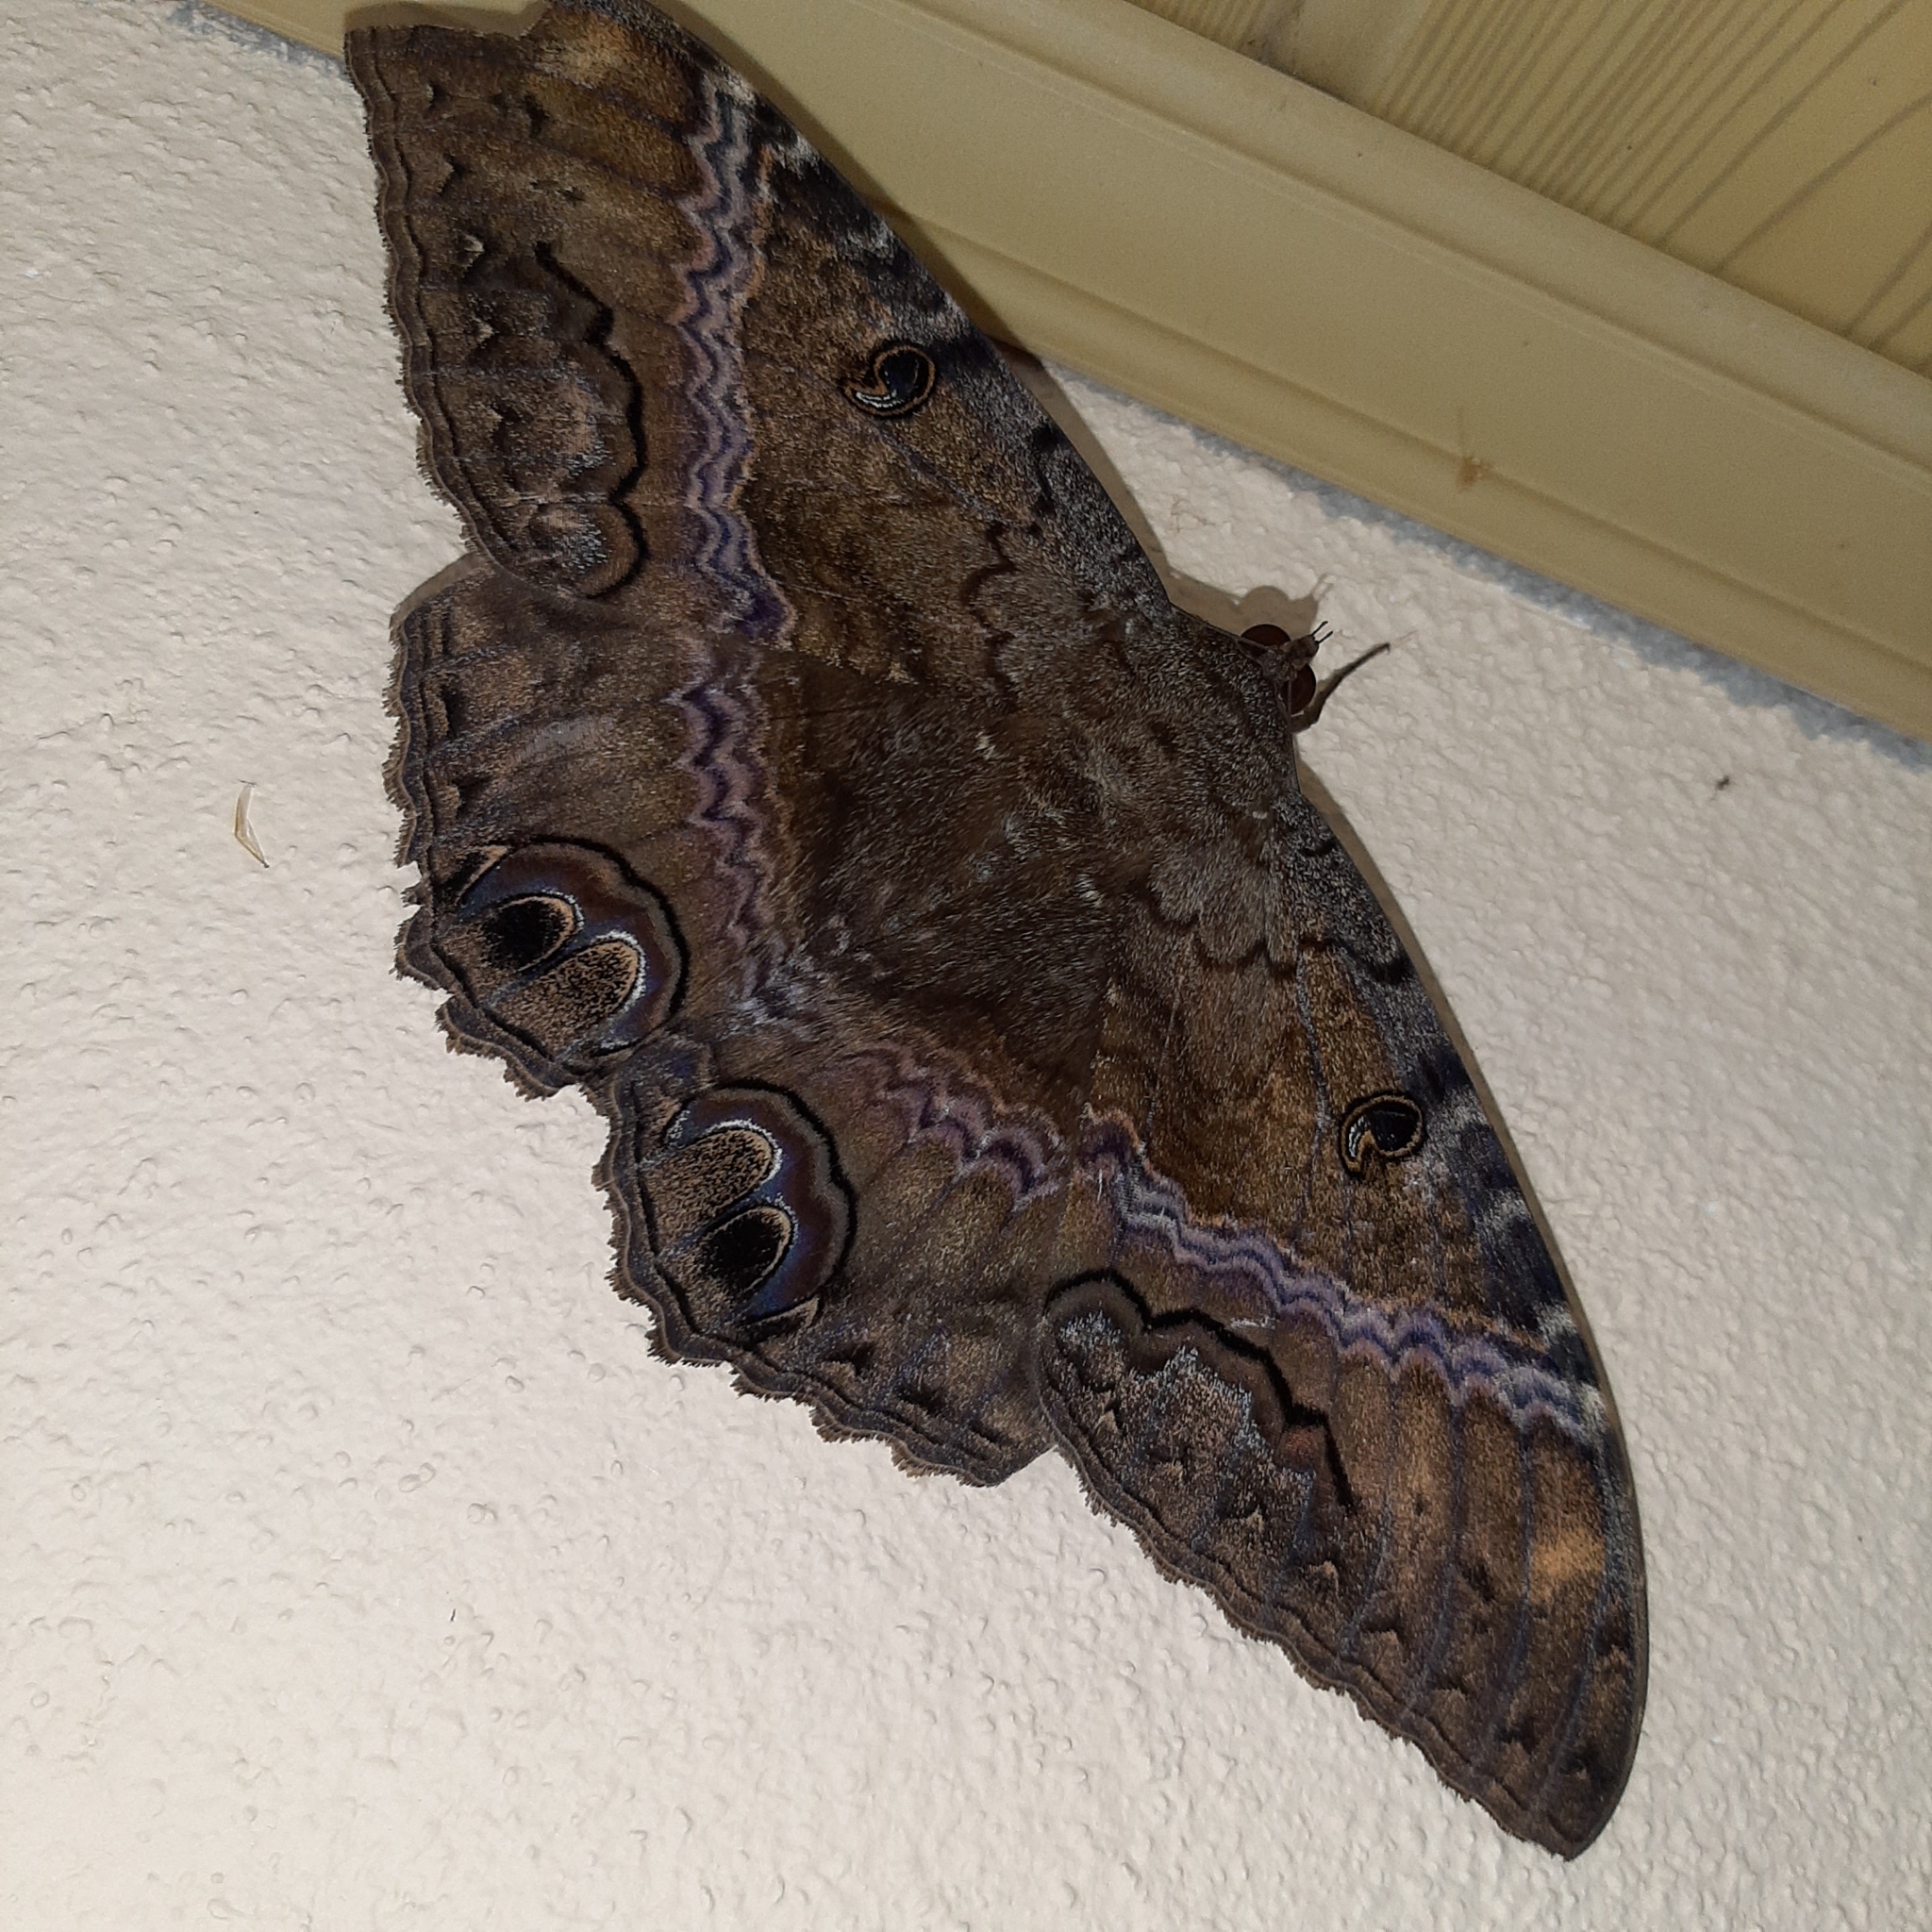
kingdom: Animalia
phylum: Arthropoda
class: Insecta
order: Lepidoptera
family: Erebidae
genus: Ascalapha
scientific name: Ascalapha odorata
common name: Black witch
